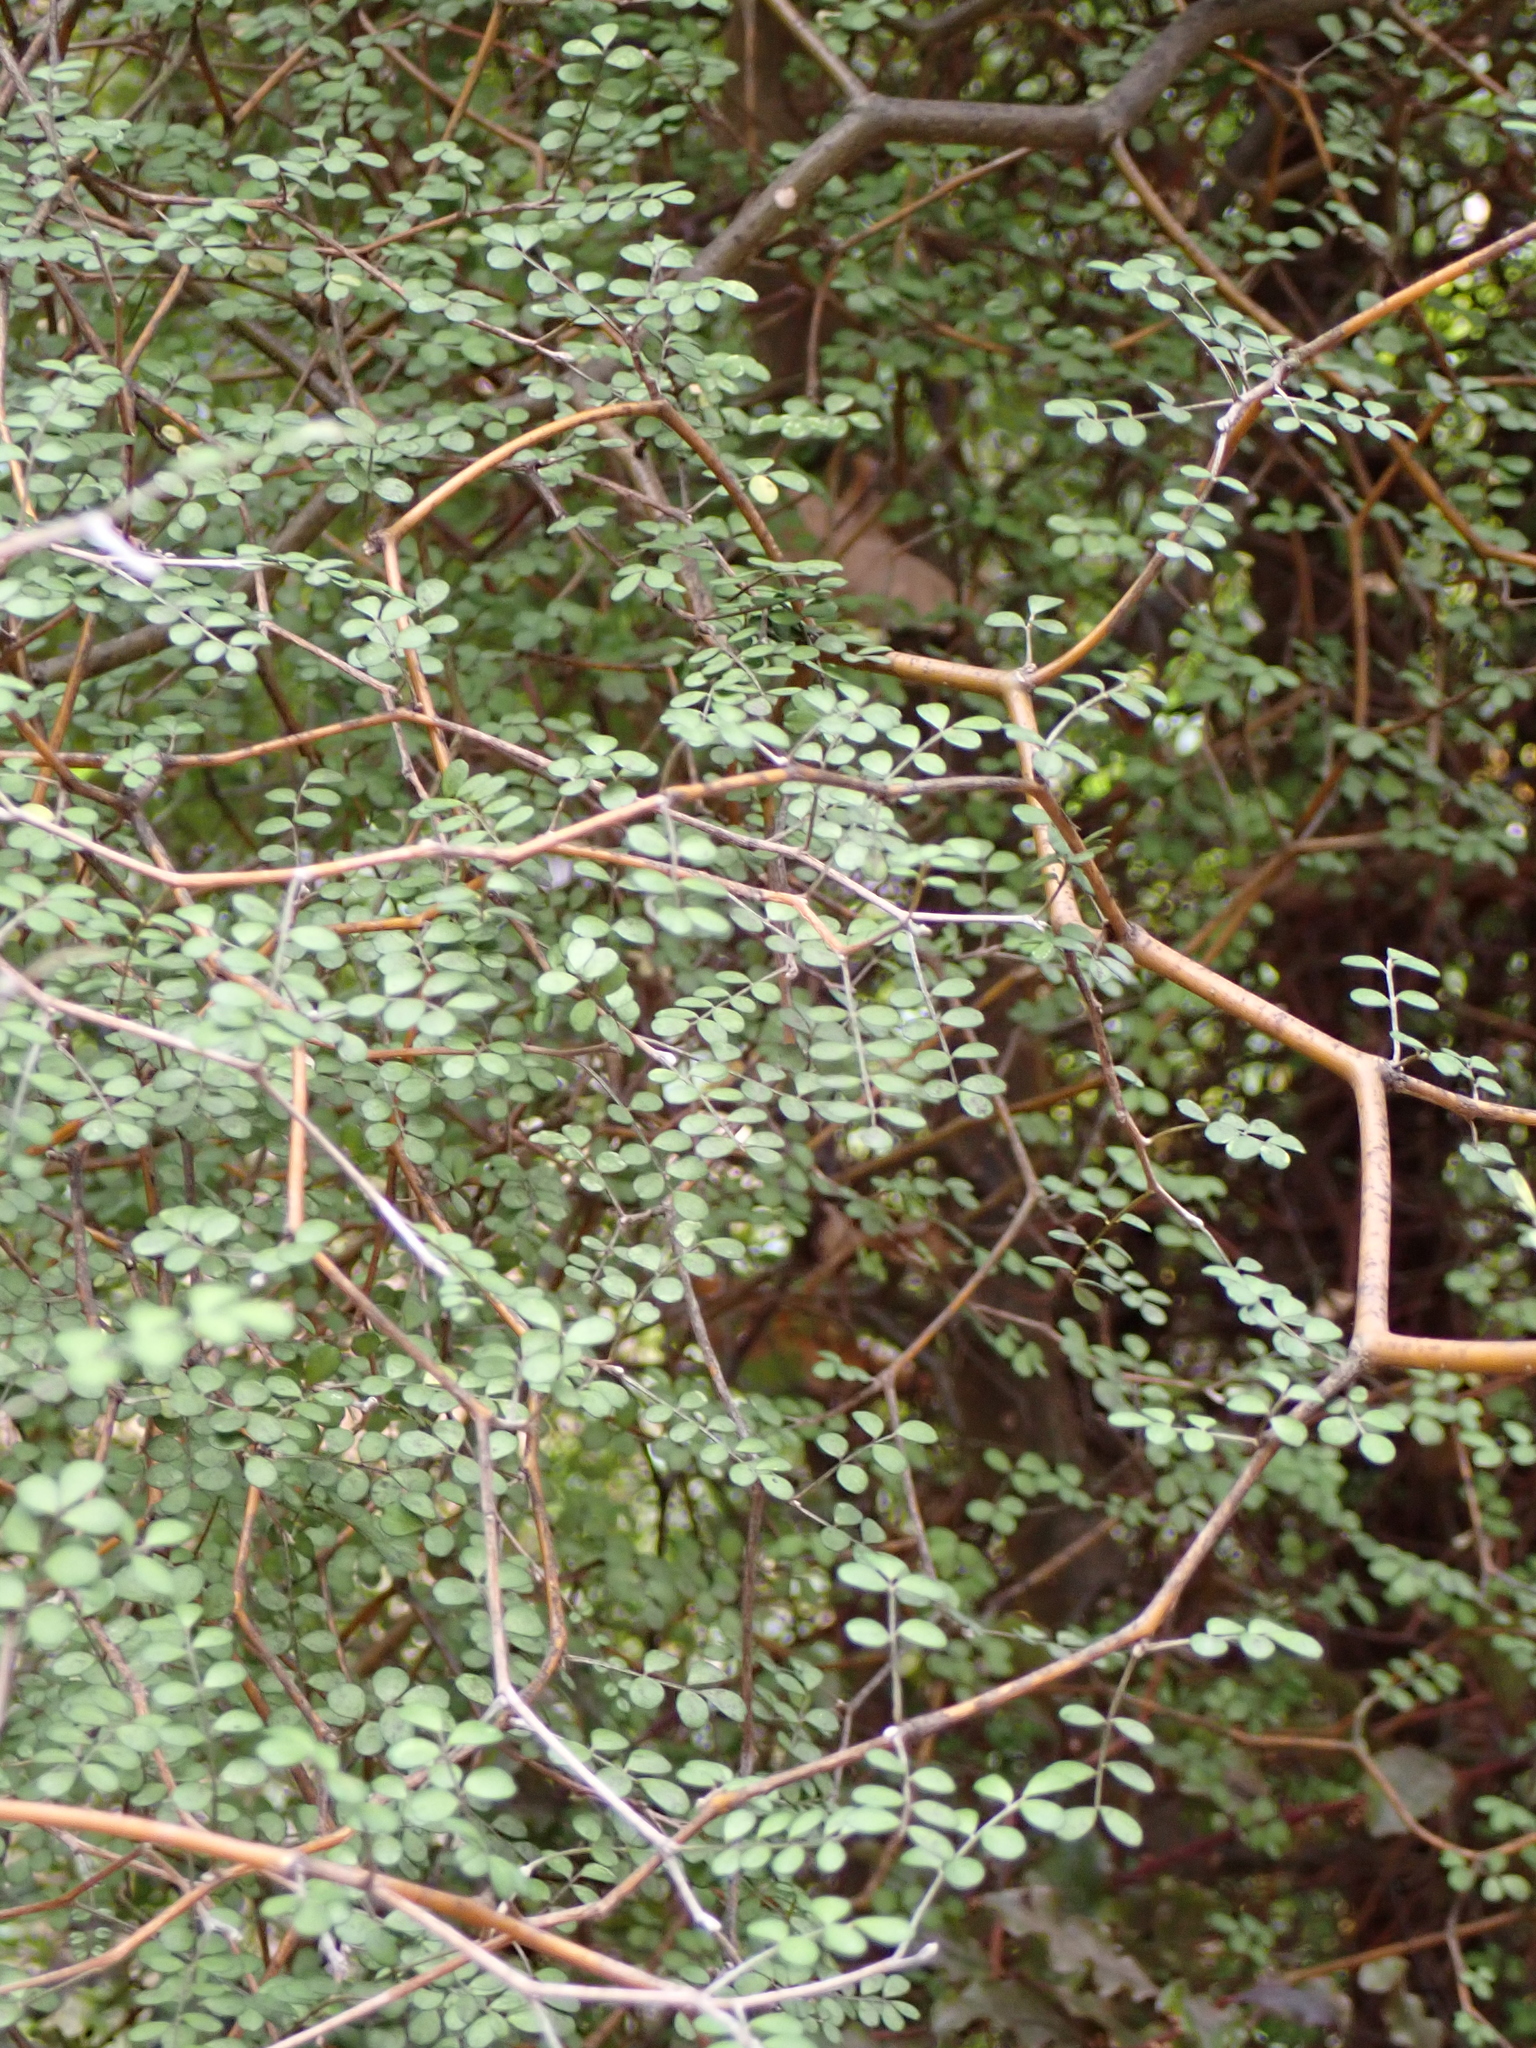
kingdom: Plantae
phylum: Tracheophyta
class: Magnoliopsida
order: Fabales
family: Fabaceae
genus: Sophora
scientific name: Sophora microphylla
